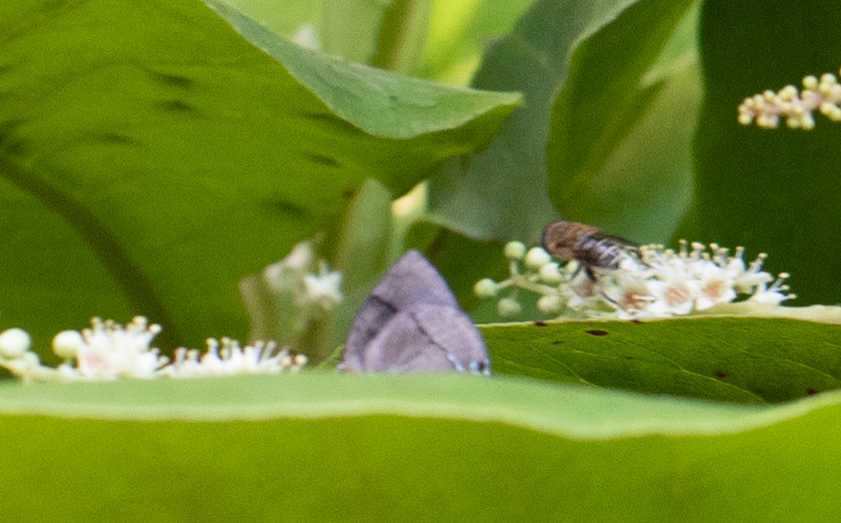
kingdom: Animalia
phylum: Arthropoda
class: Insecta
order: Lepidoptera
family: Lycaenidae
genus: Panthiades
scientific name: Panthiades bitias
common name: Bitias hairstreak
